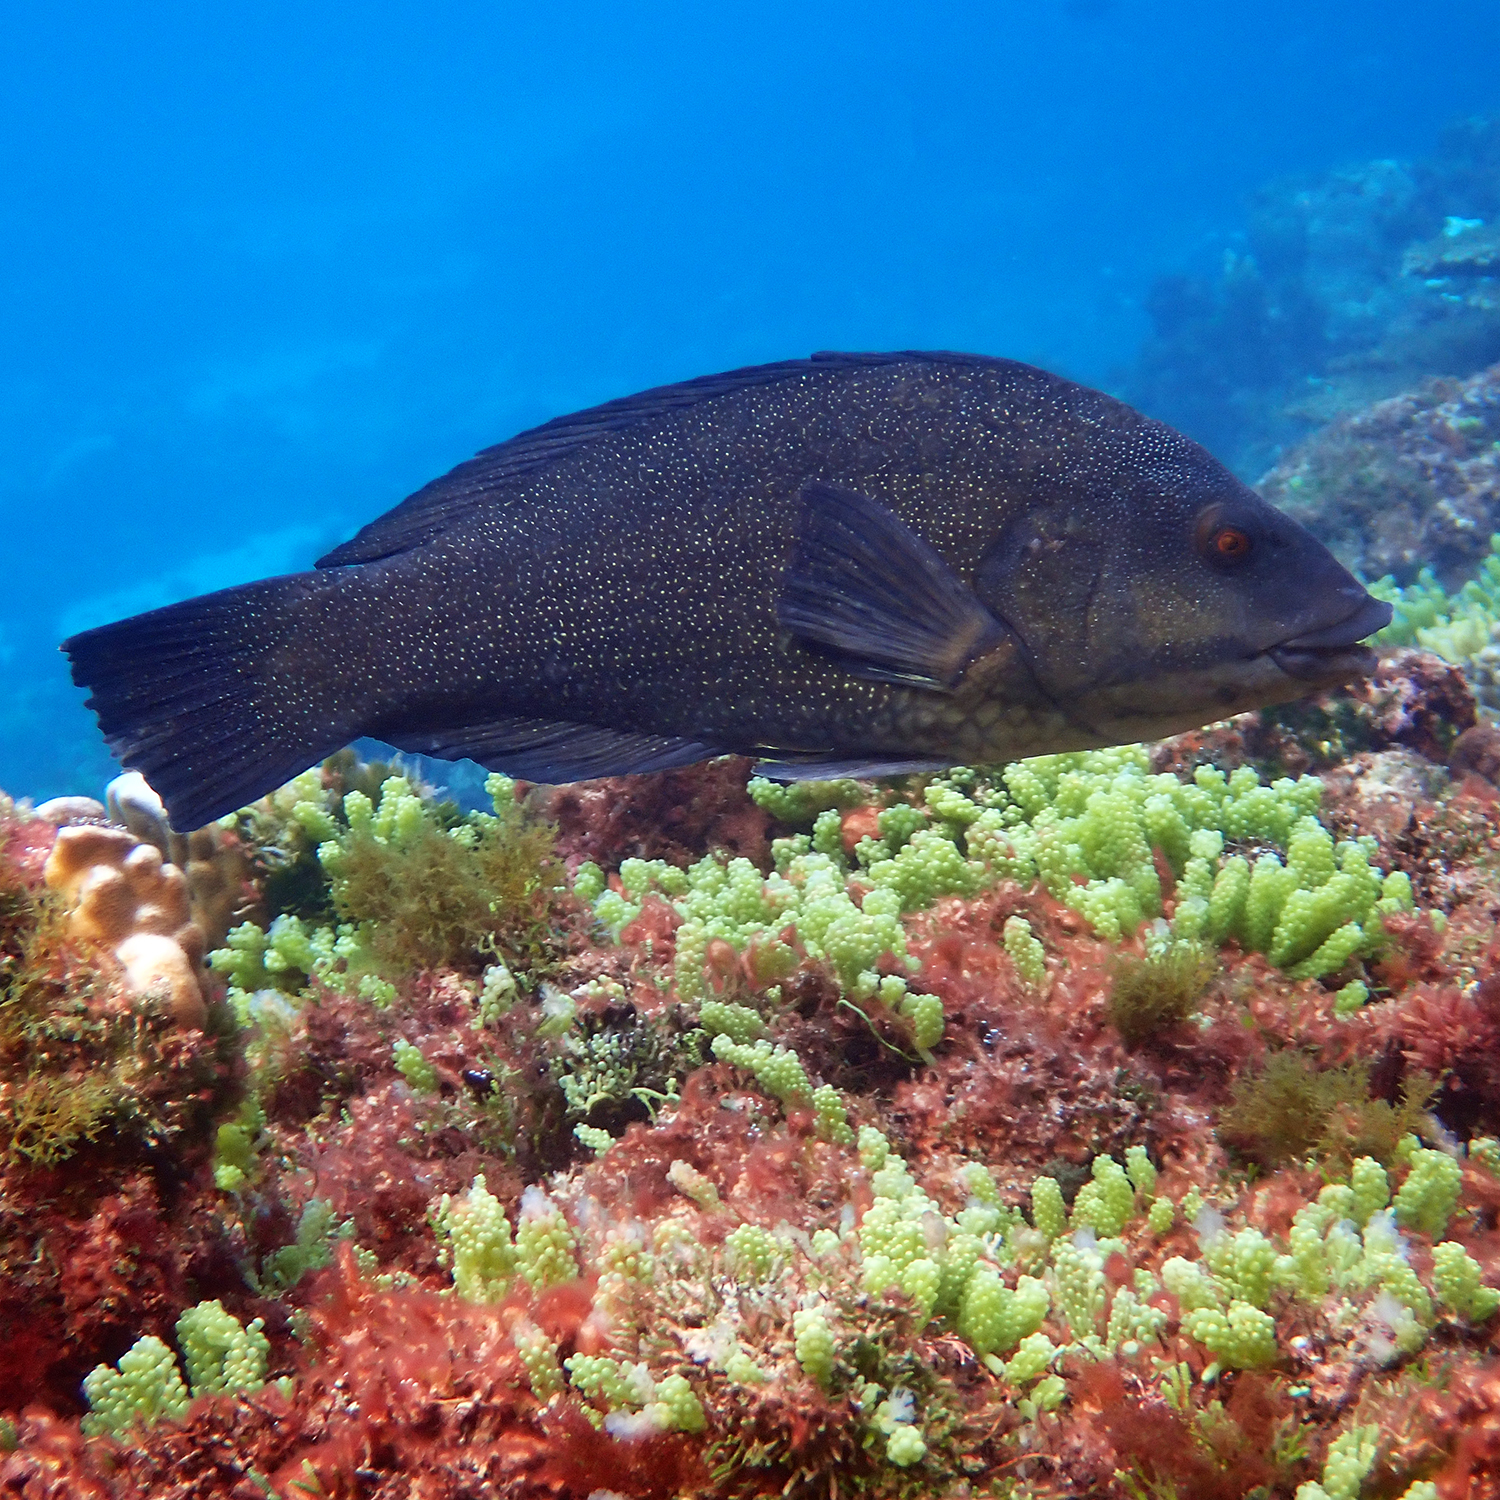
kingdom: Animalia
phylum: Chordata
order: Perciformes
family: Labridae
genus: Notolabrus
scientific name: Notolabrus inscriptus
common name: Green wrasse
